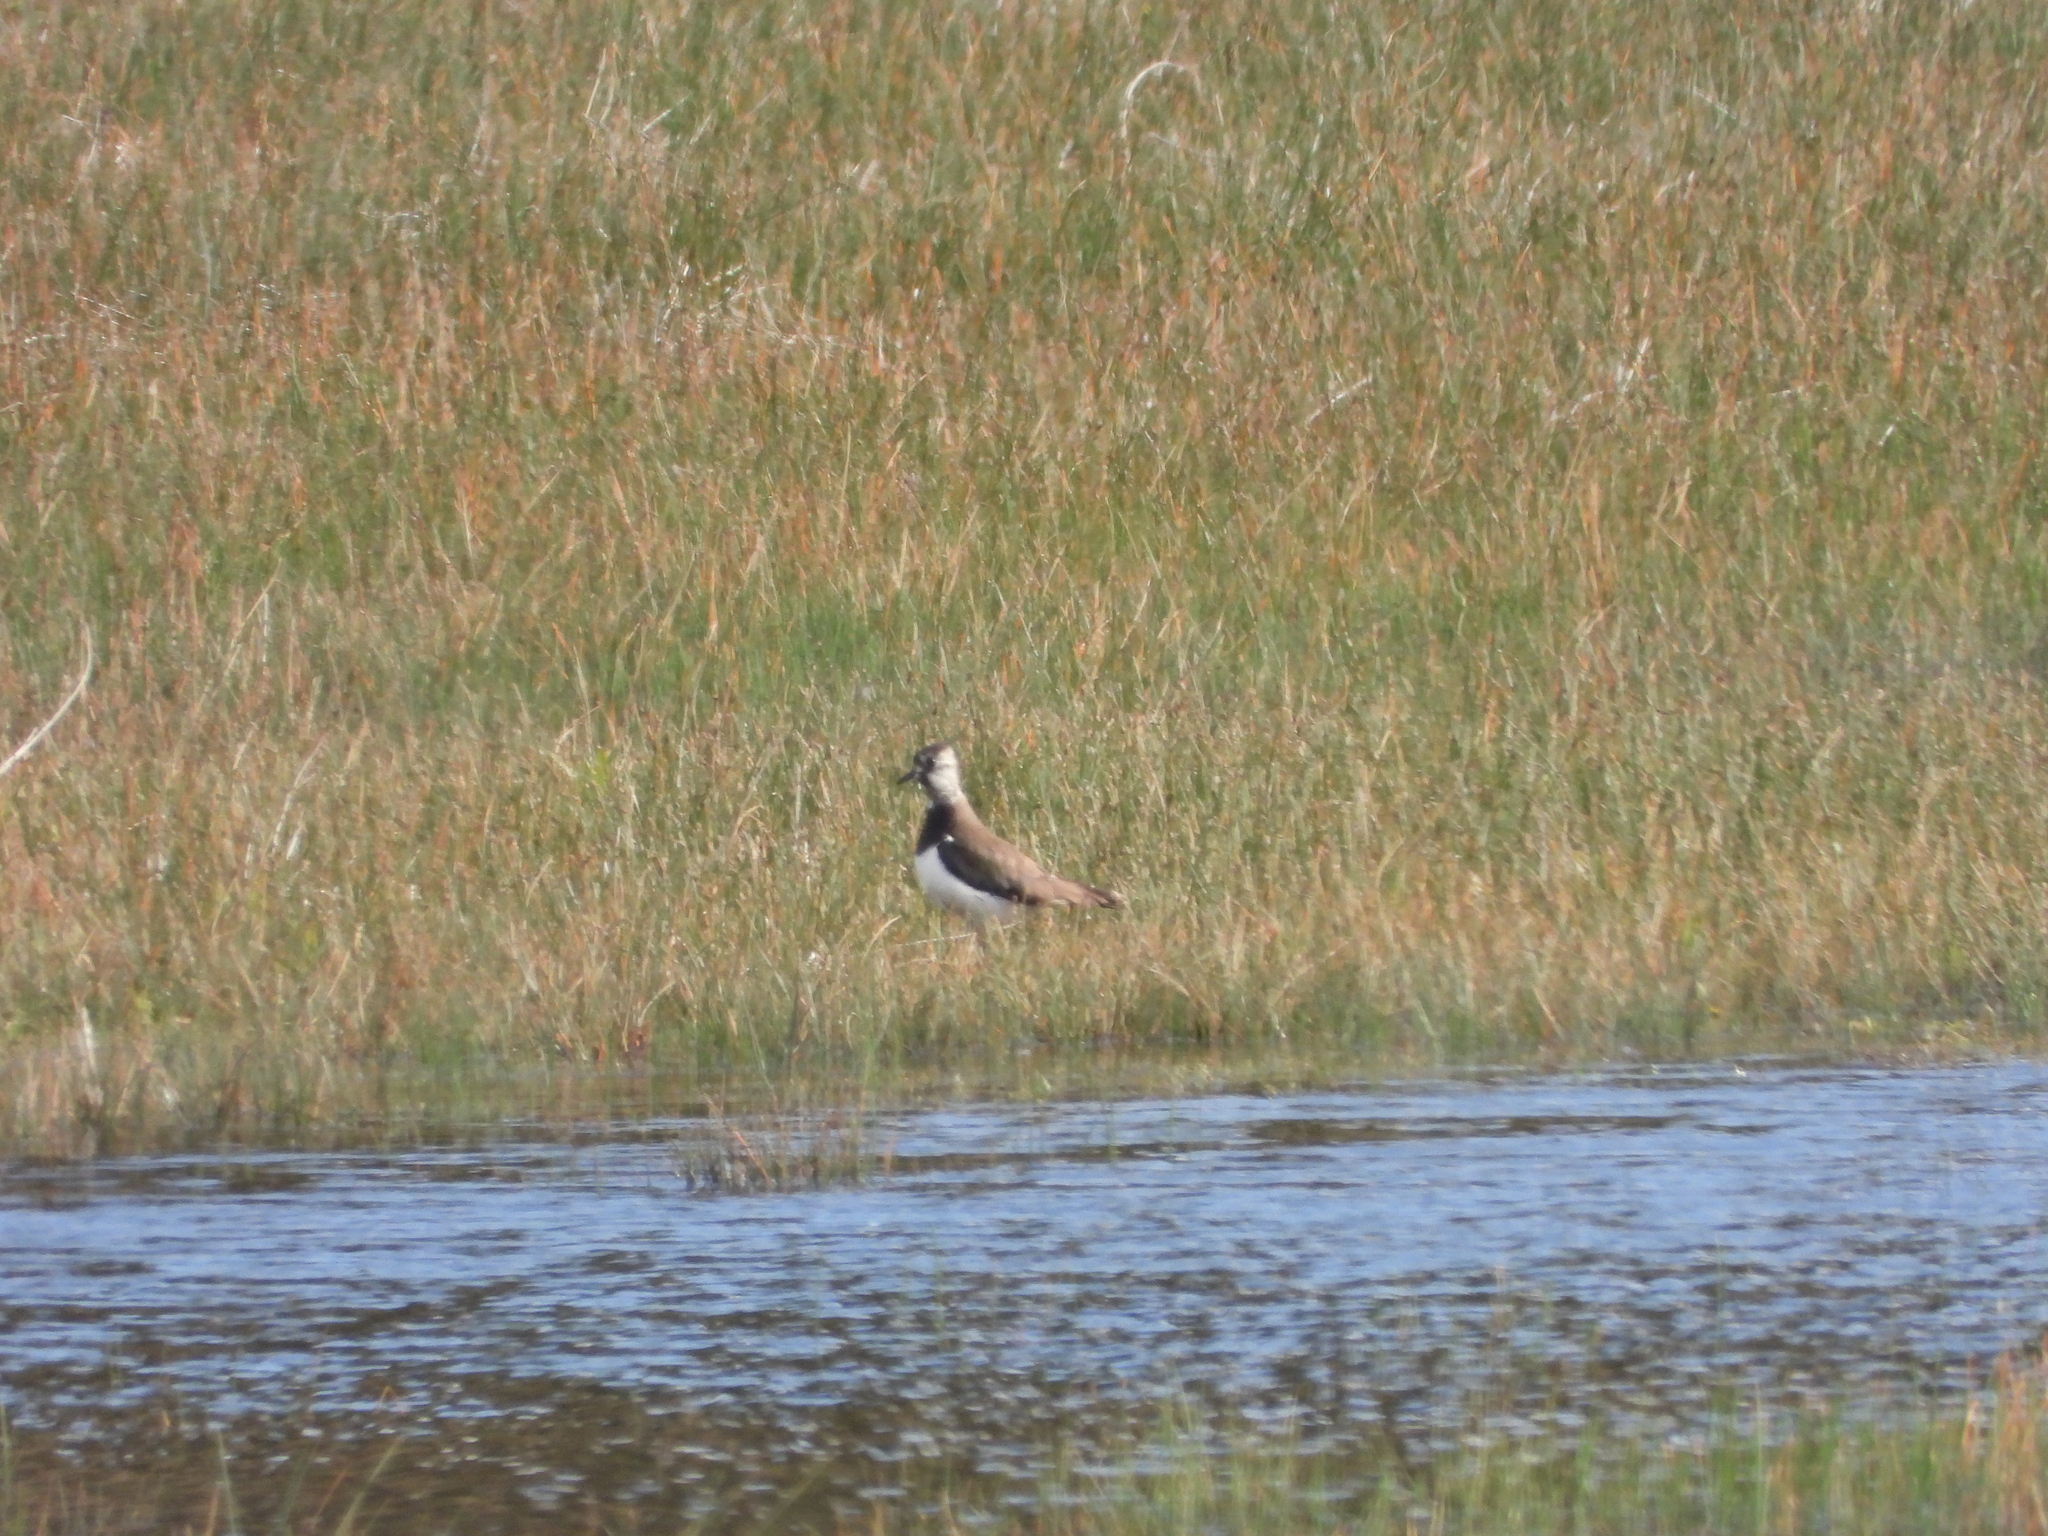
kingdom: Animalia
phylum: Chordata
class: Aves
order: Charadriiformes
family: Charadriidae
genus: Vanellus
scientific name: Vanellus vanellus
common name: Northern lapwing
